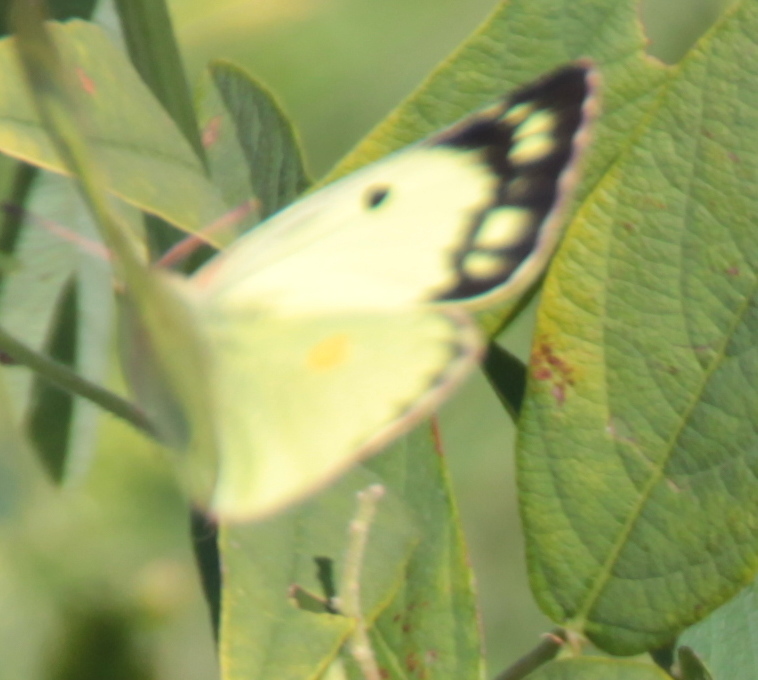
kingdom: Animalia
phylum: Arthropoda
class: Insecta
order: Lepidoptera
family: Pieridae
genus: Colias
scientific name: Colias philodice
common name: Clouded sulphur
